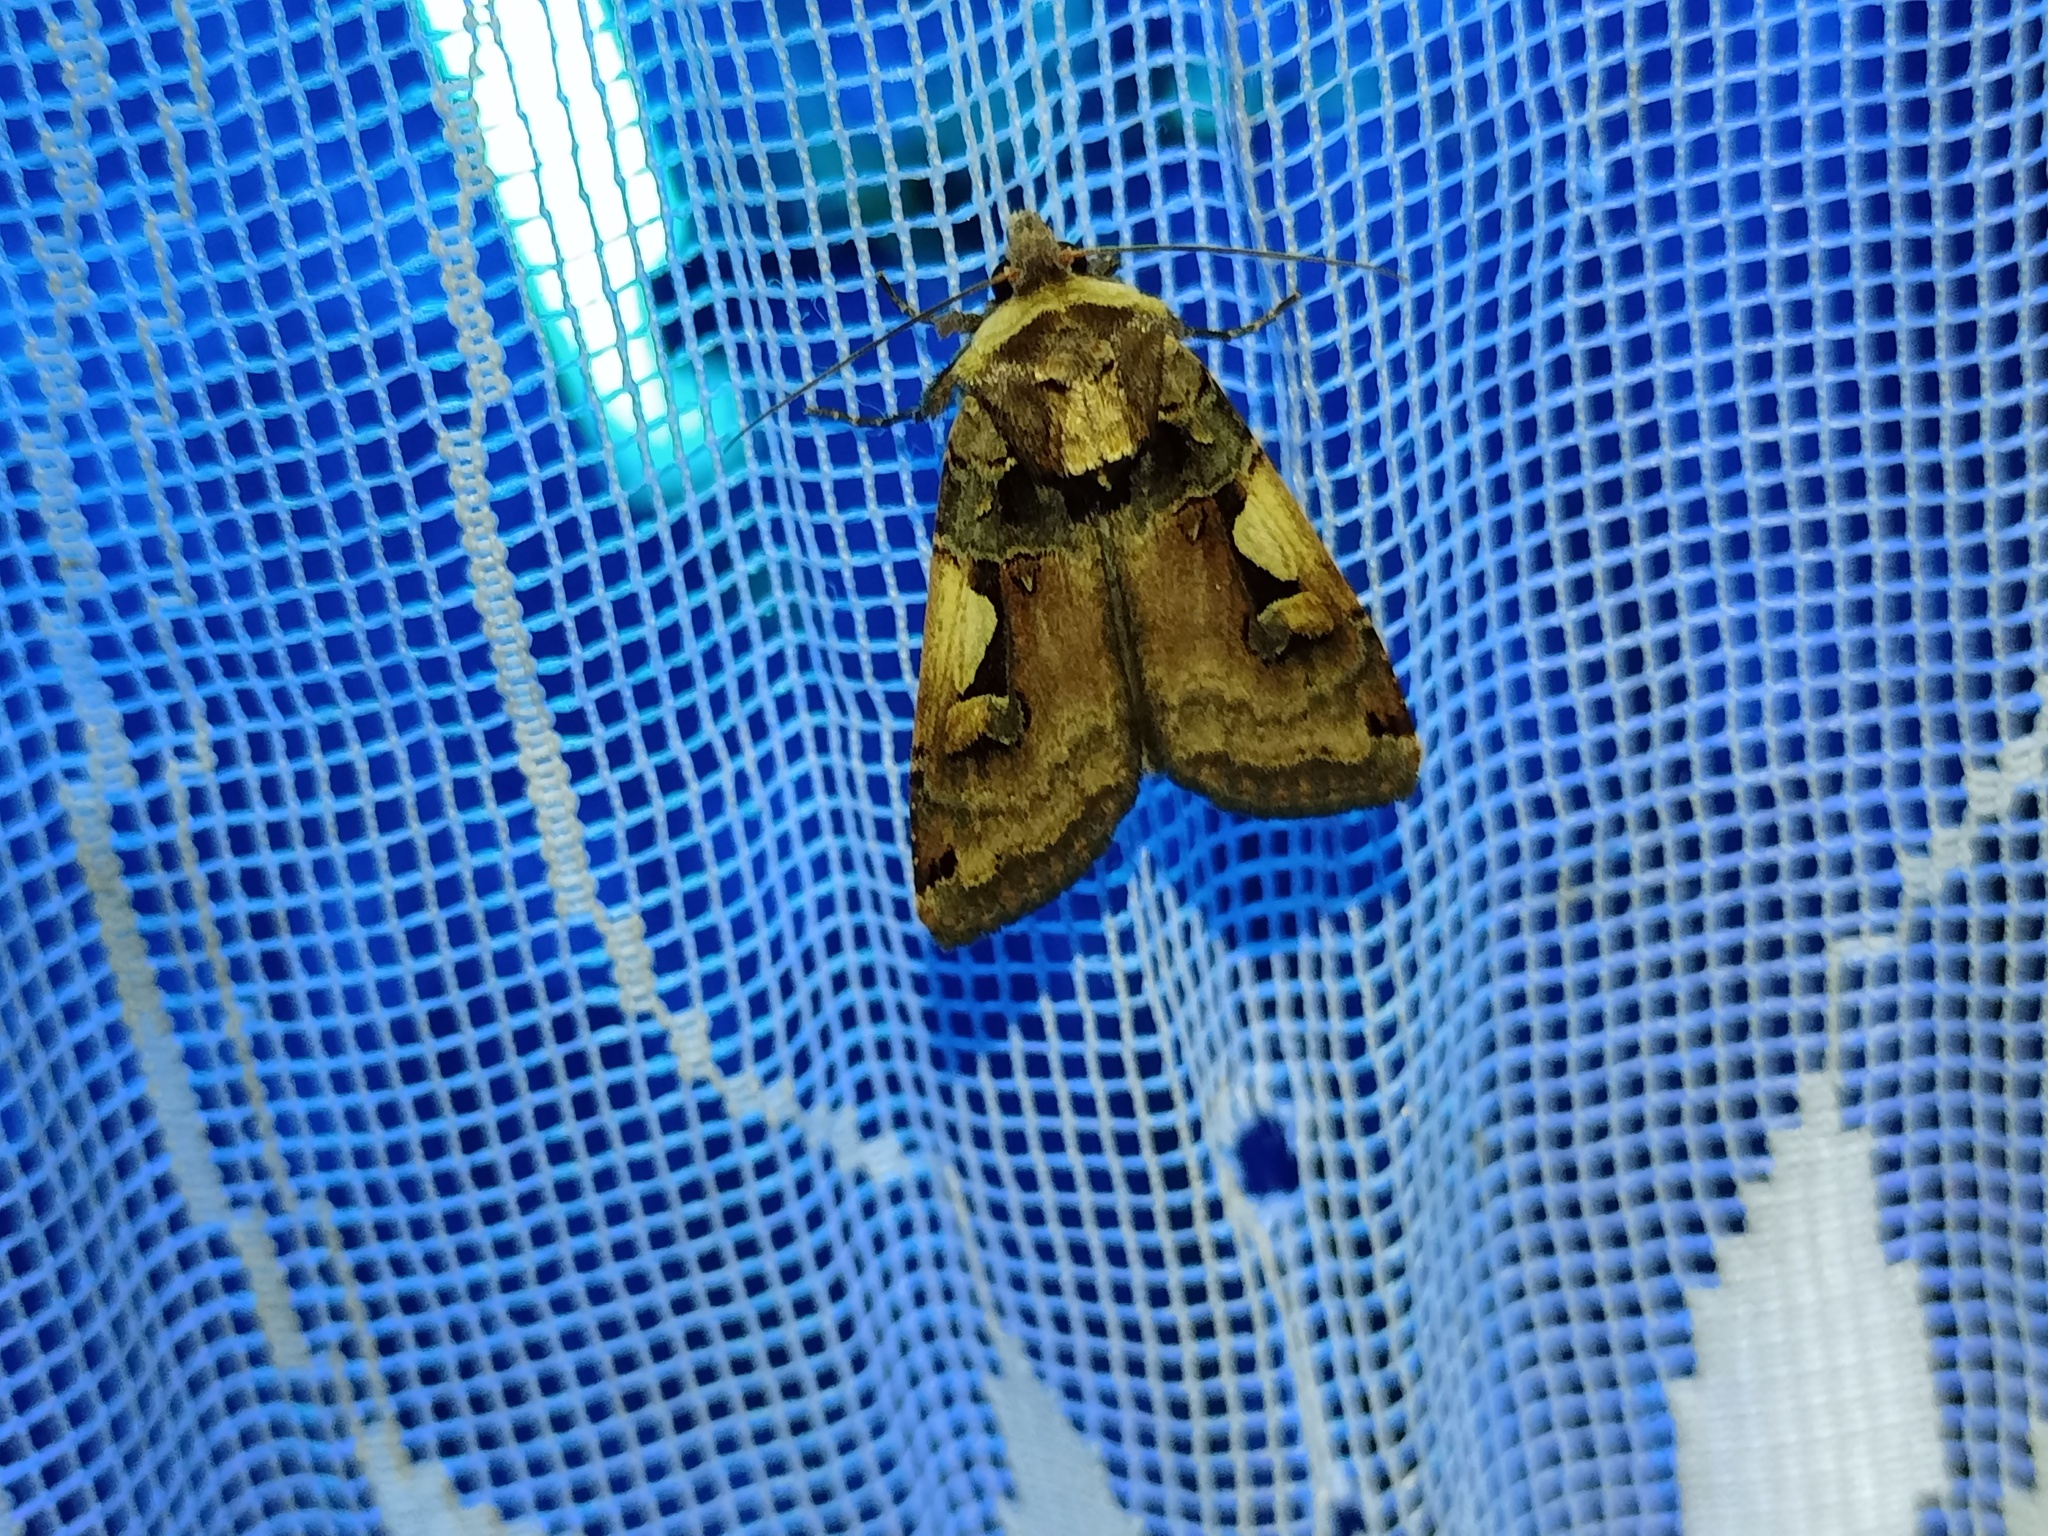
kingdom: Animalia
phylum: Arthropoda
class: Insecta
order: Lepidoptera
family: Noctuidae
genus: Xestia
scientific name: Xestia c-nigrum
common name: Setaceous hebrew character
